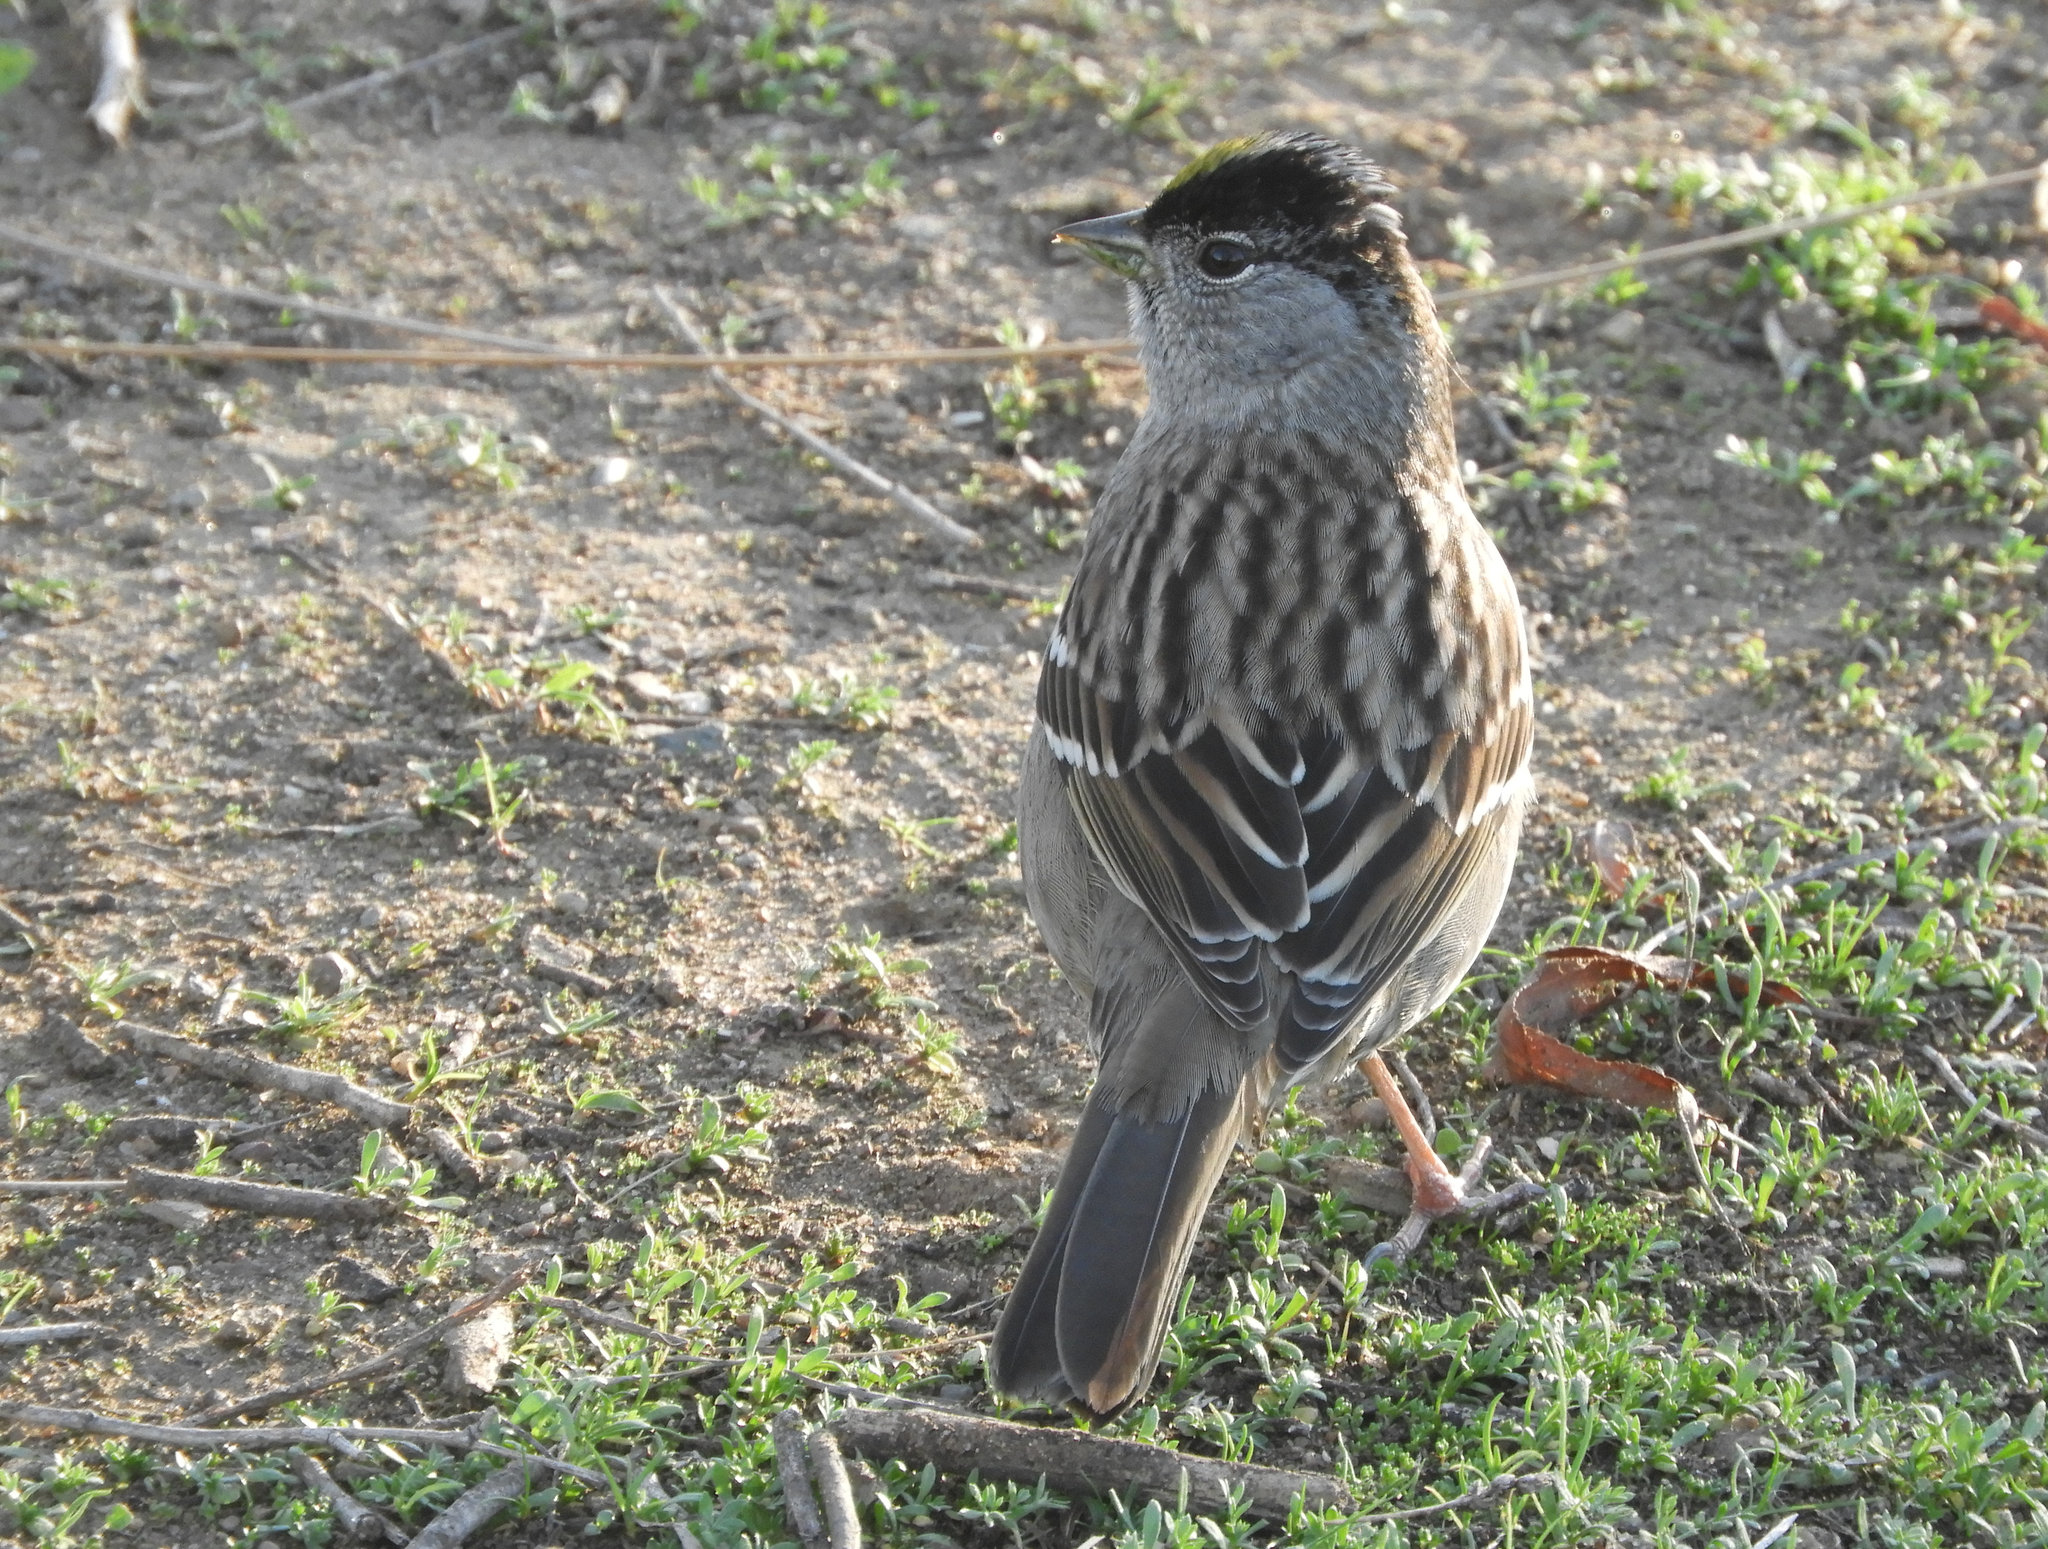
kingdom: Animalia
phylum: Chordata
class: Aves
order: Passeriformes
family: Passerellidae
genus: Zonotrichia
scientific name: Zonotrichia atricapilla
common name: Golden-crowned sparrow
